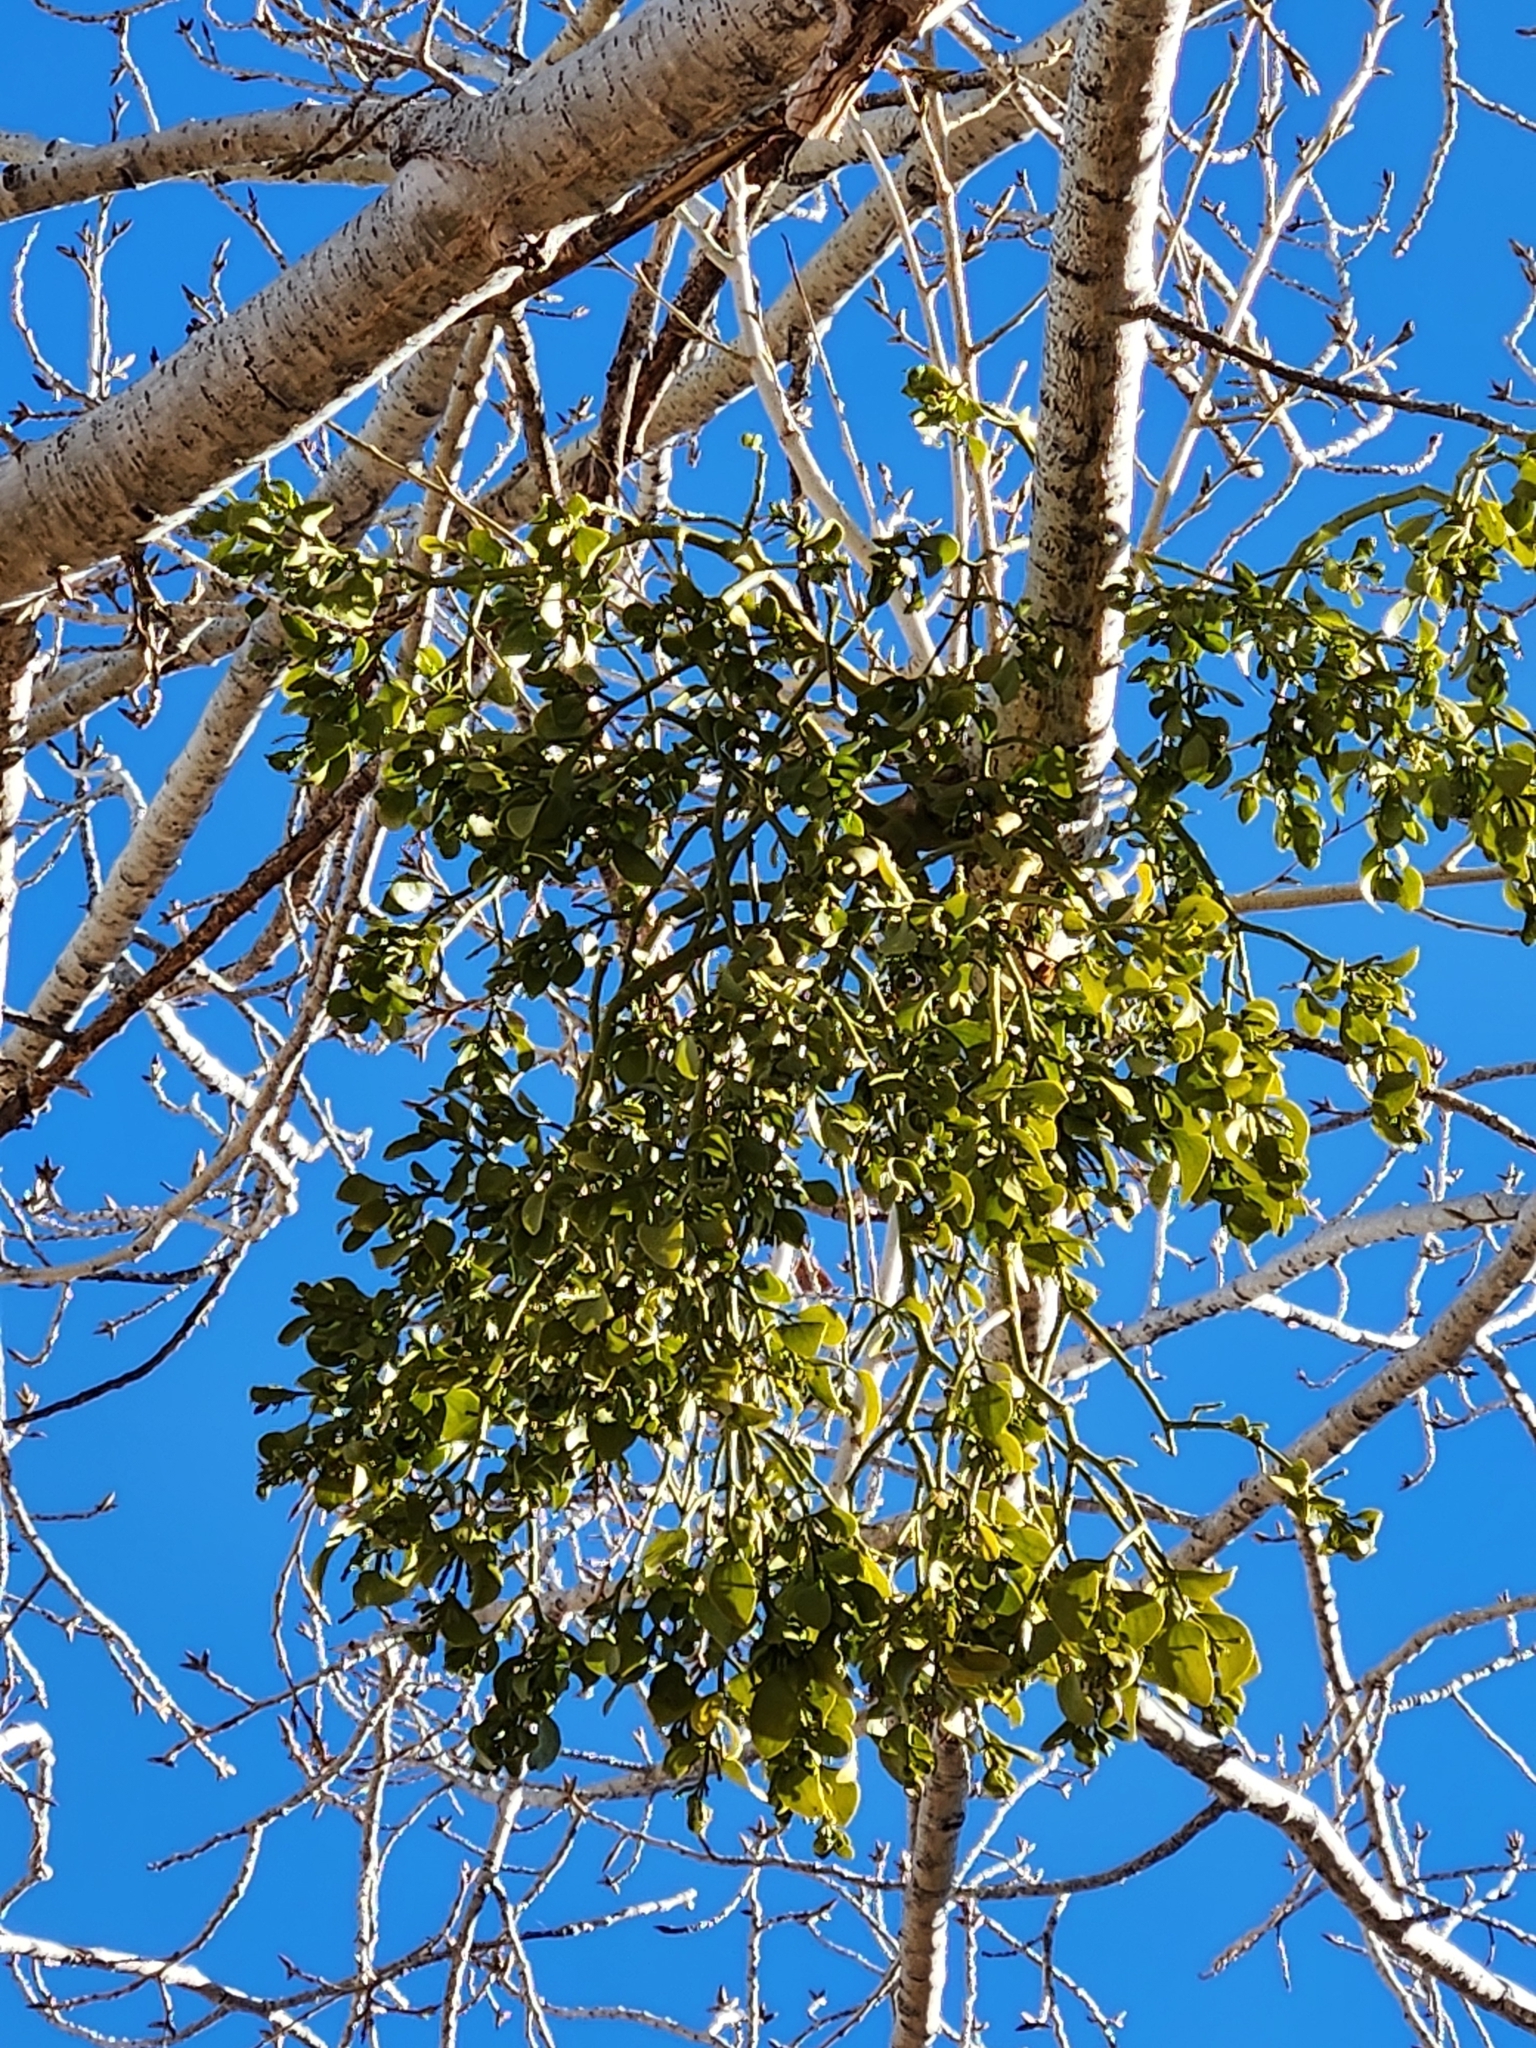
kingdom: Plantae
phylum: Tracheophyta
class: Magnoliopsida
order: Santalales
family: Viscaceae
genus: Phoradendron
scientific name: Phoradendron
